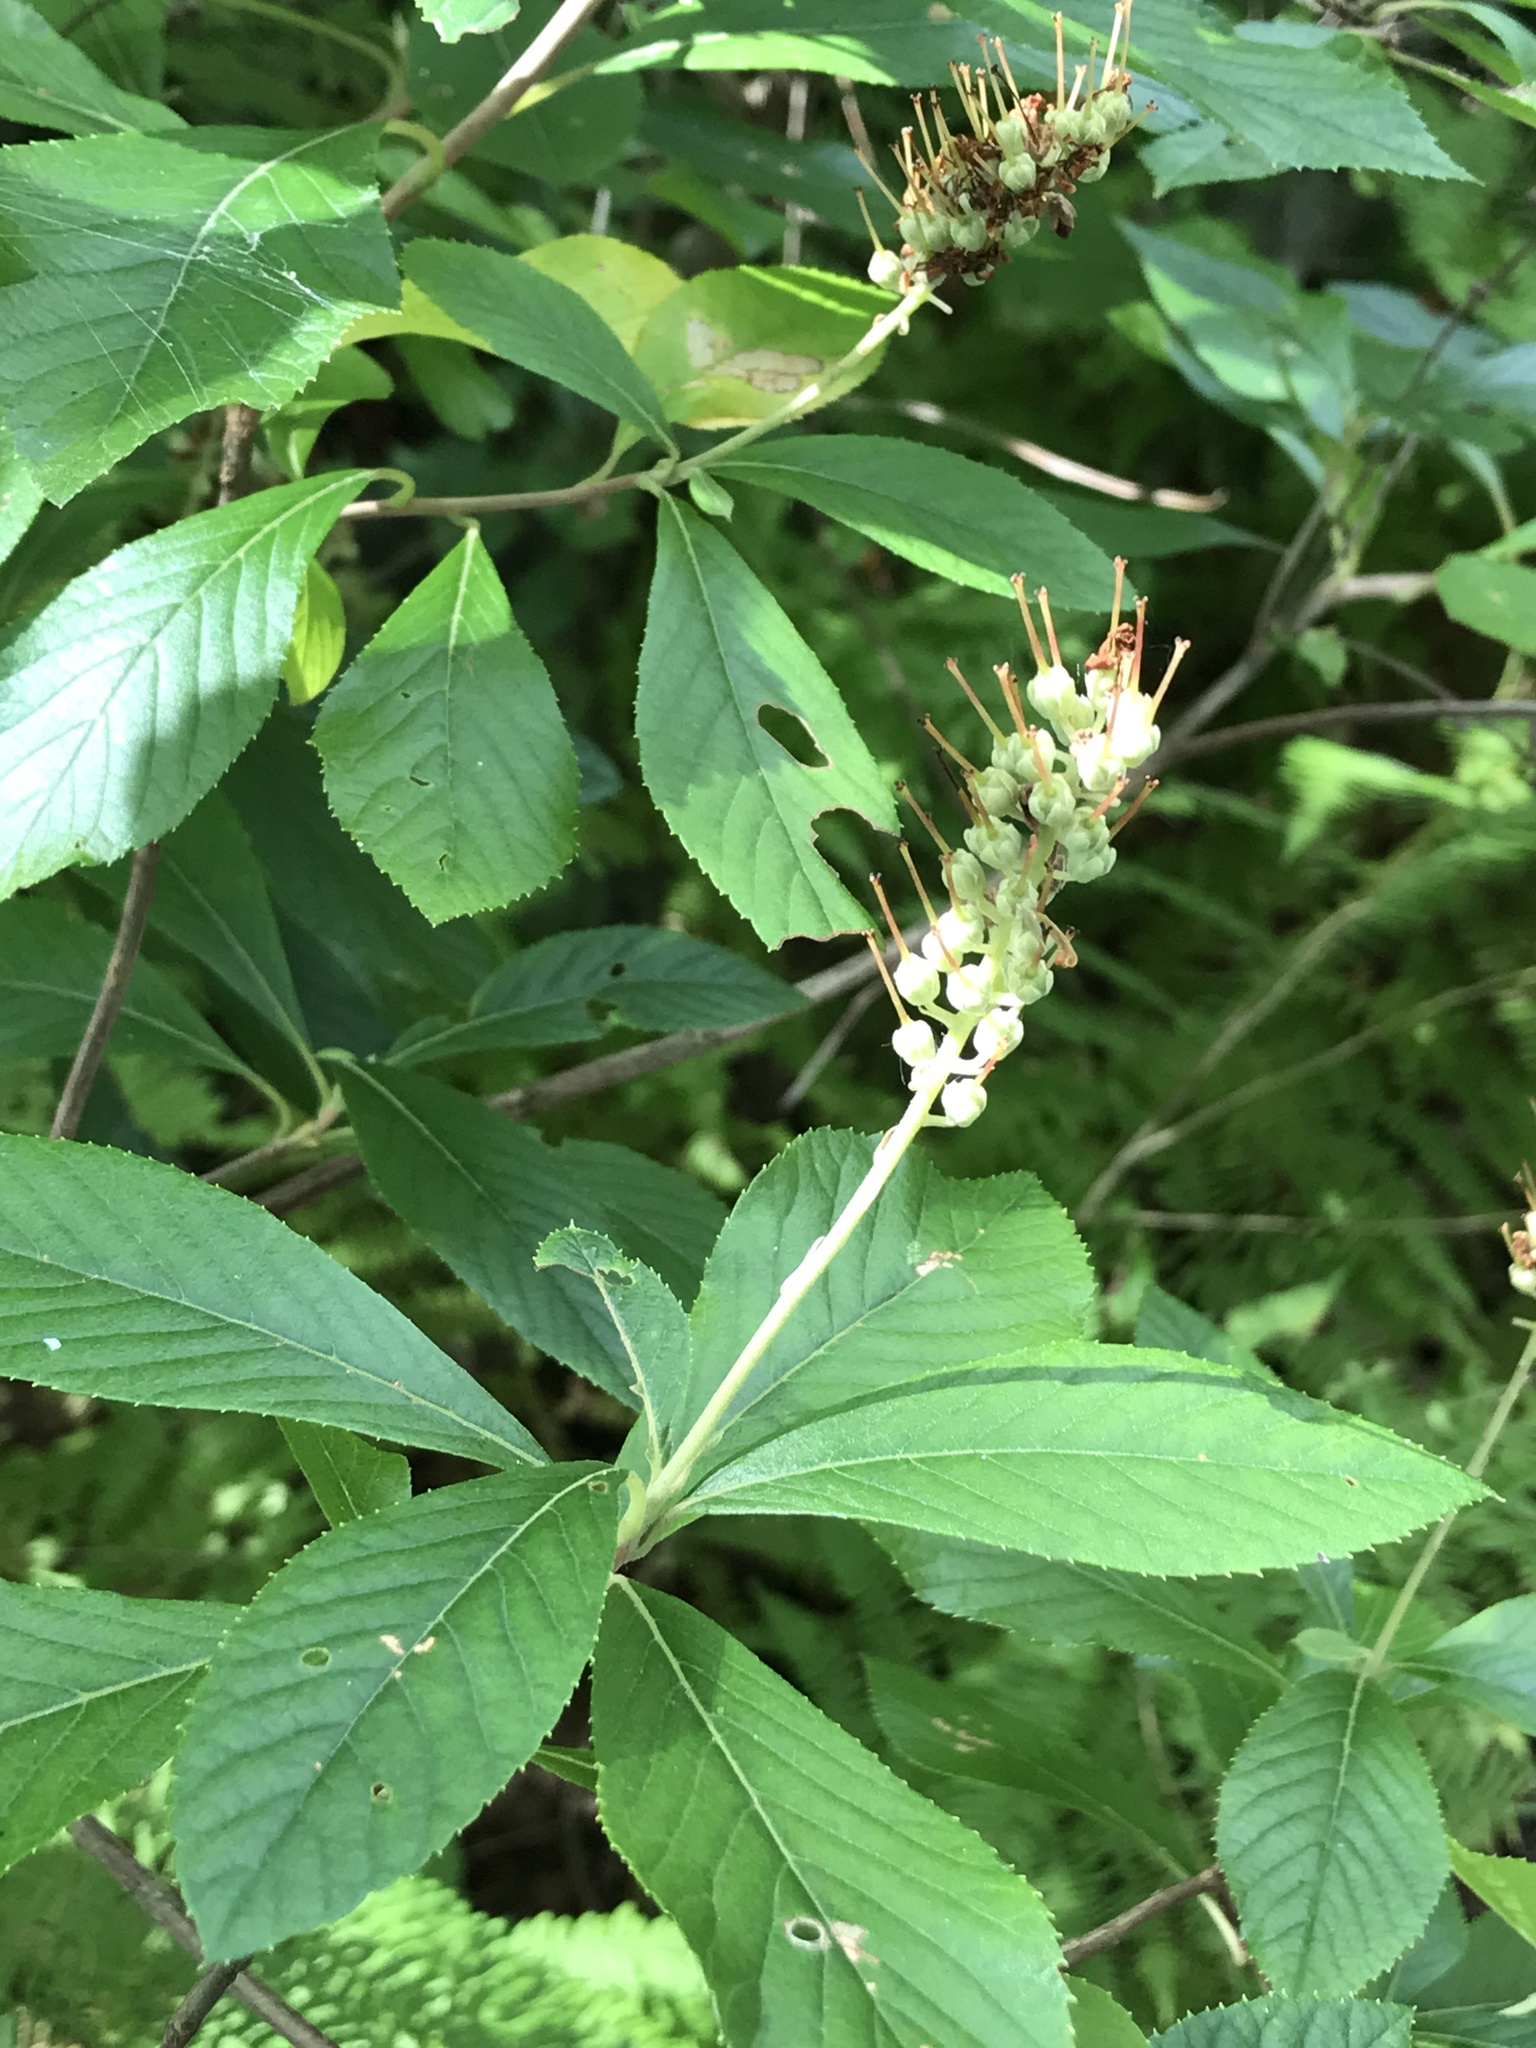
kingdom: Plantae
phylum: Tracheophyta
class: Magnoliopsida
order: Ericales
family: Clethraceae
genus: Clethra
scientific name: Clethra alnifolia
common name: Sweet pepperbush
